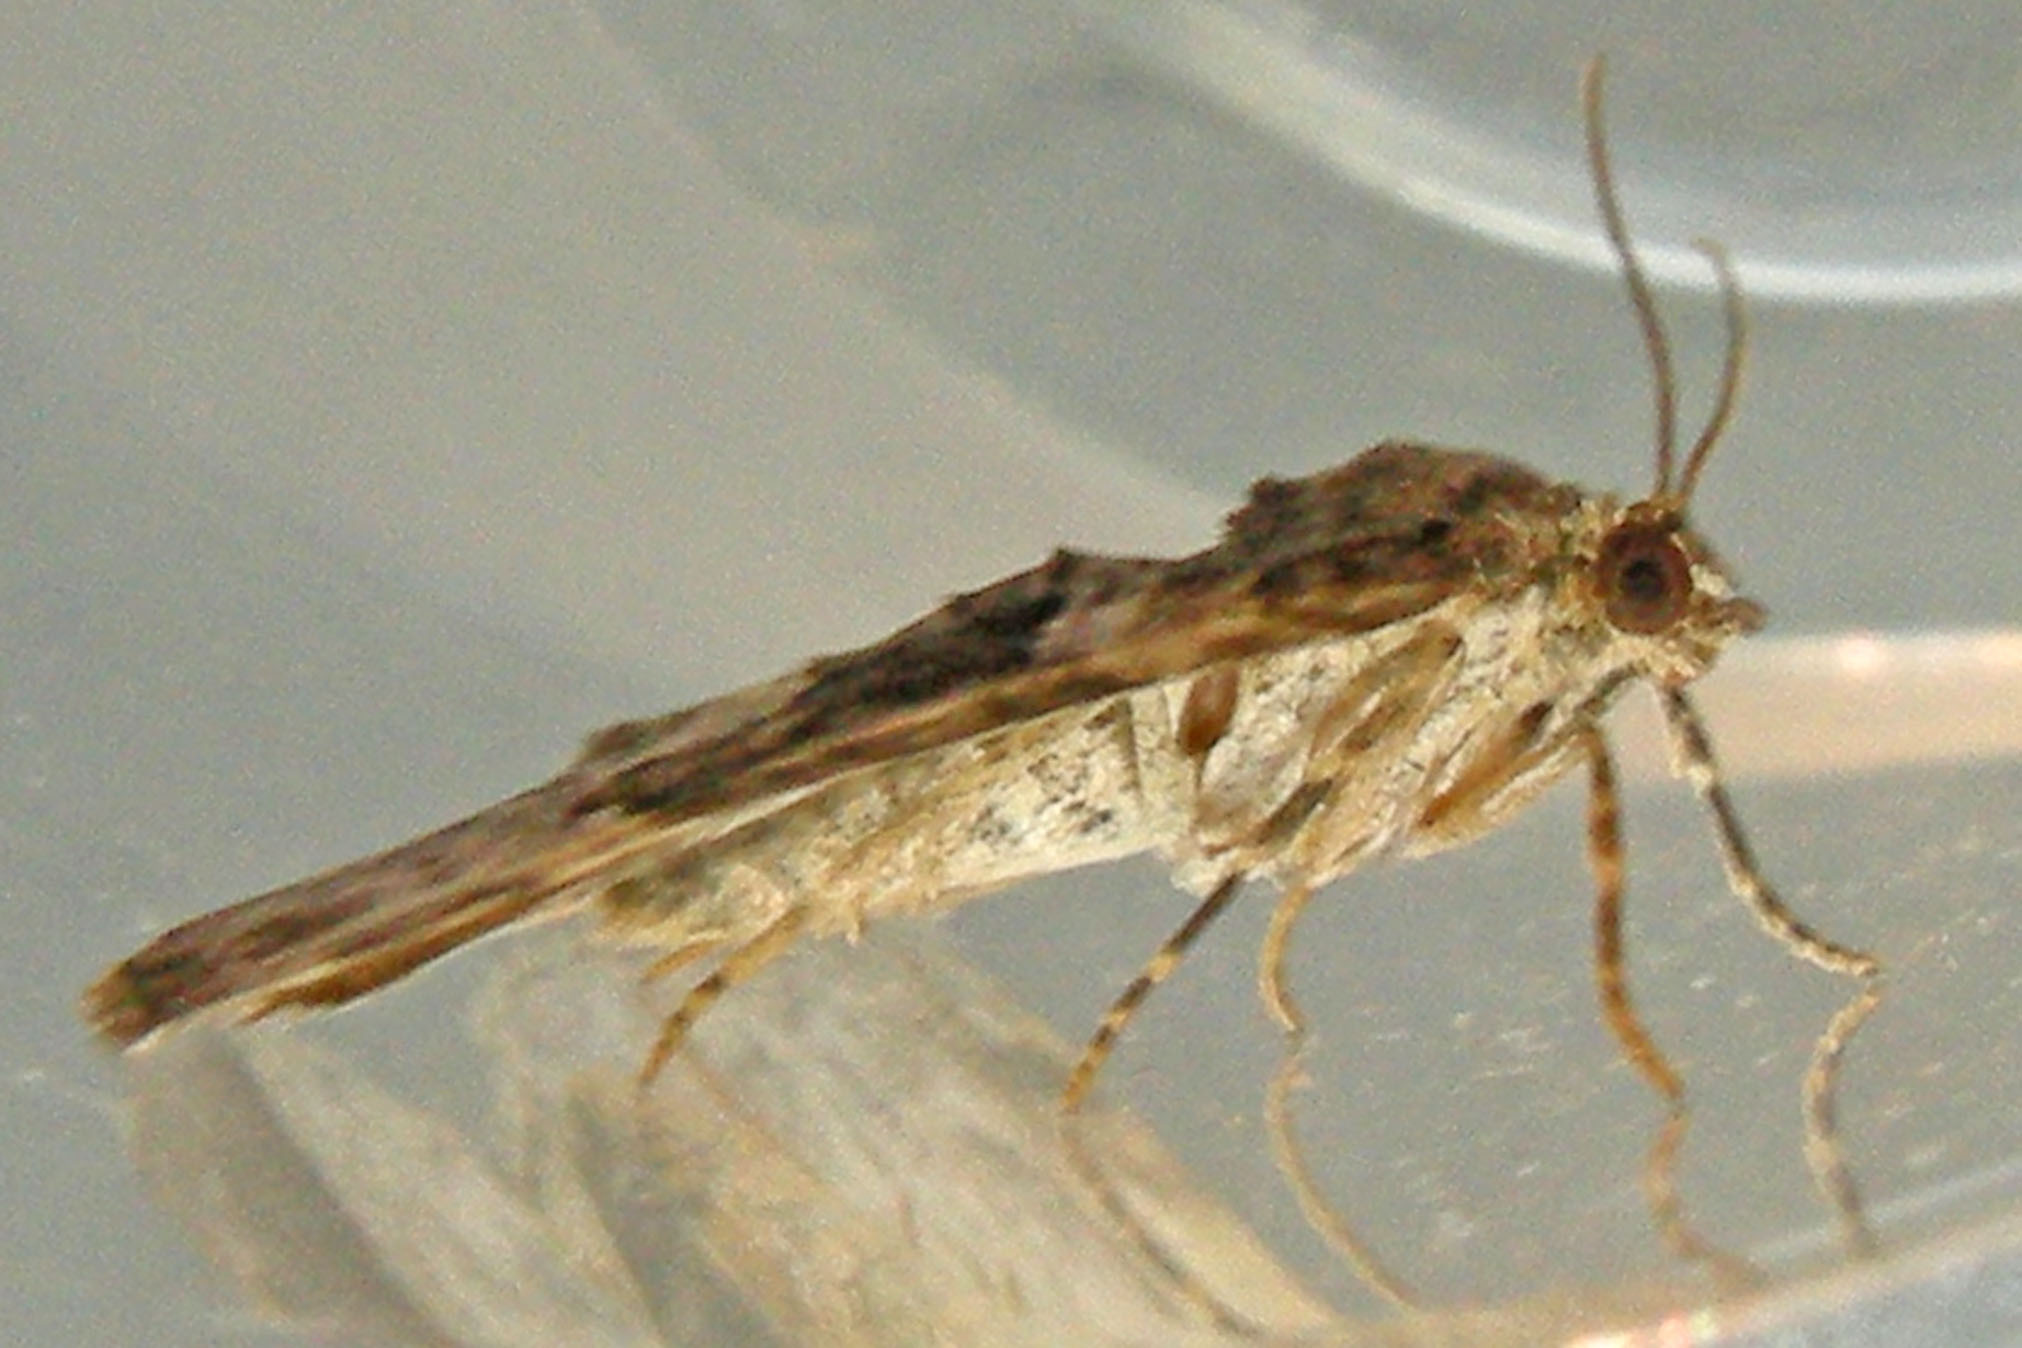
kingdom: Animalia
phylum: Arthropoda
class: Insecta
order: Lepidoptera
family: Geometridae
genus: Xanthorhoe
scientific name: Xanthorhoe ferrugata
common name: Dark-barred twin-spot carpet
